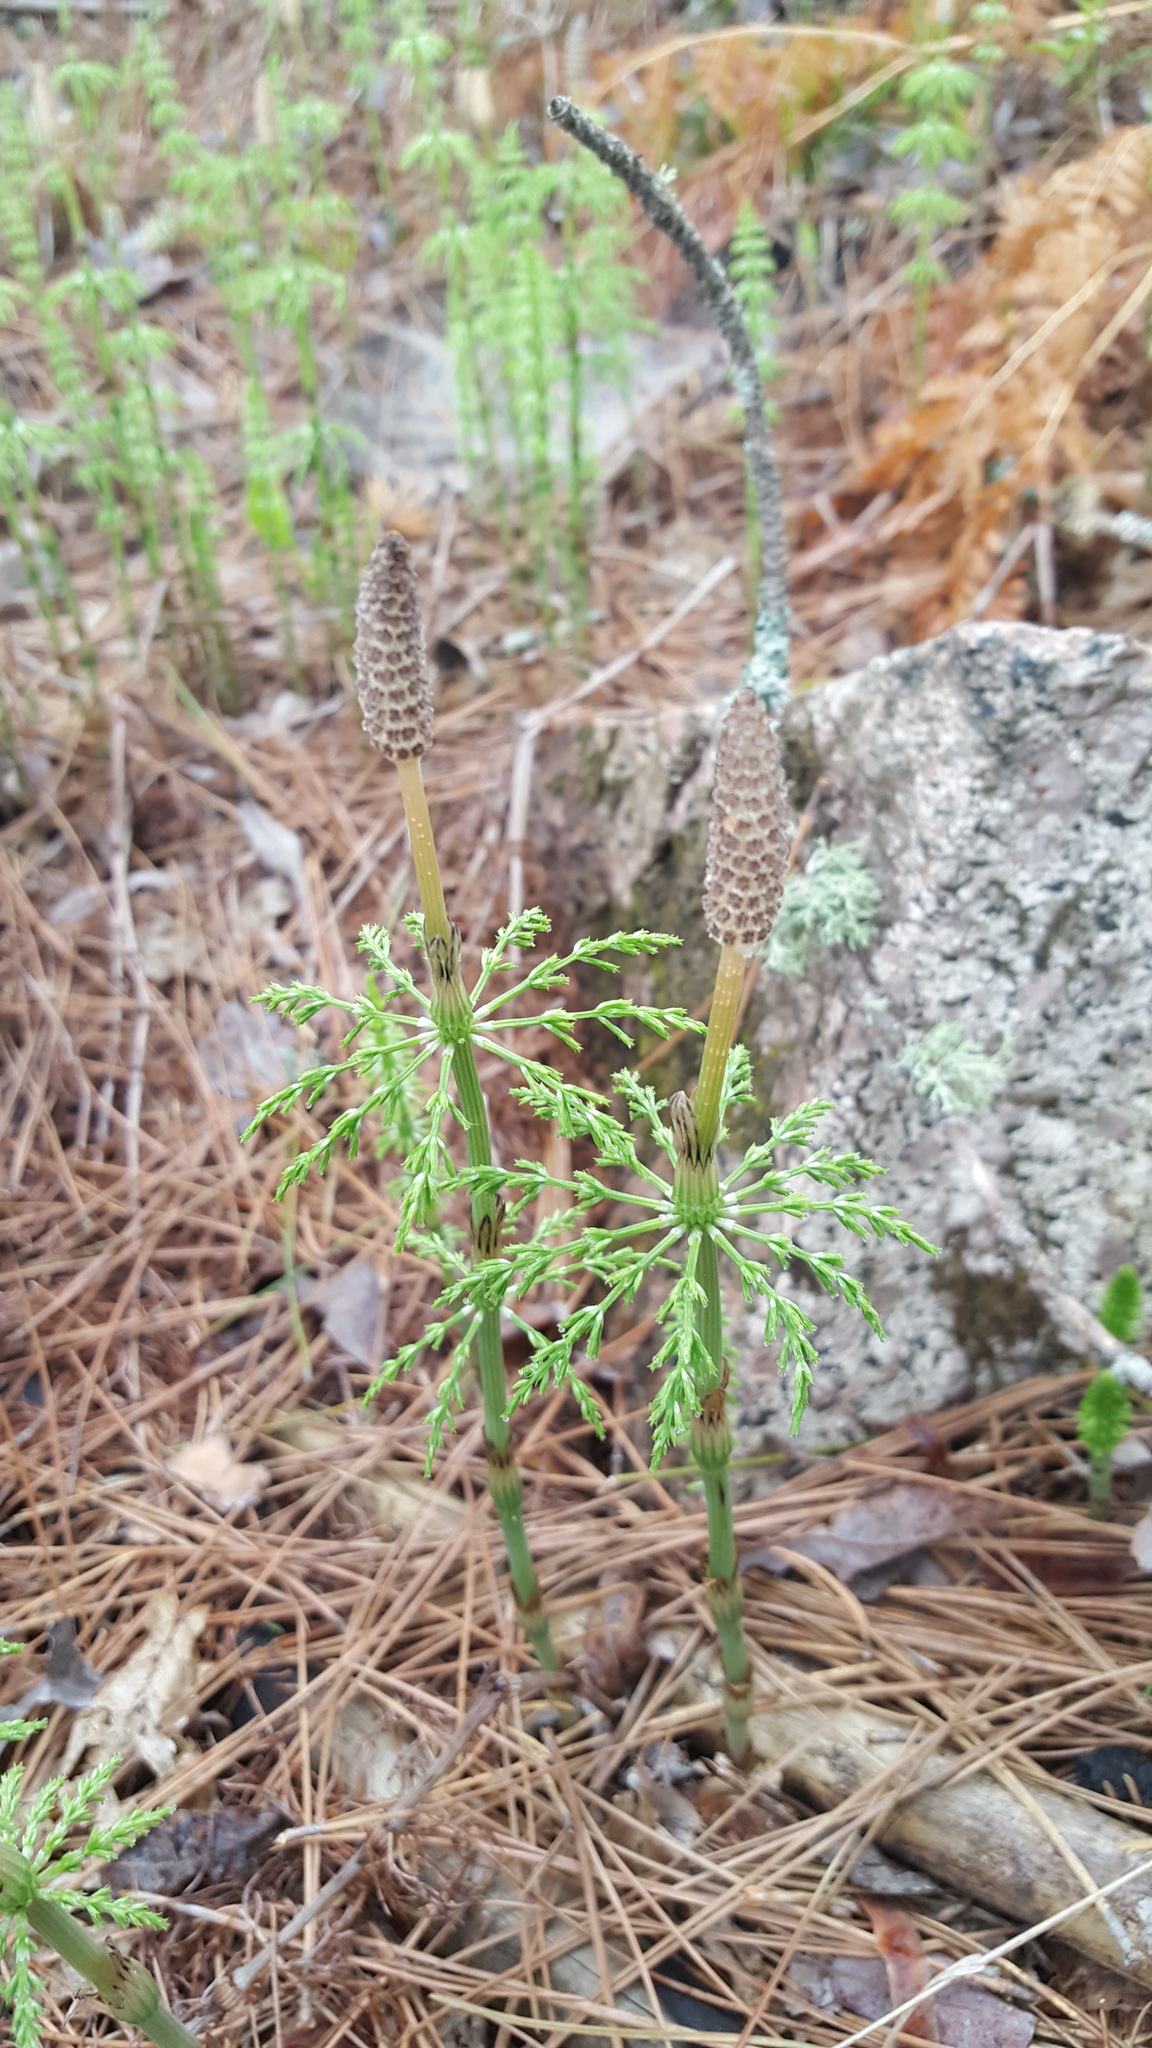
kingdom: Plantae
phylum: Tracheophyta
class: Polypodiopsida
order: Equisetales
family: Equisetaceae
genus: Equisetum
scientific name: Equisetum sylvaticum
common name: Wood horsetail
